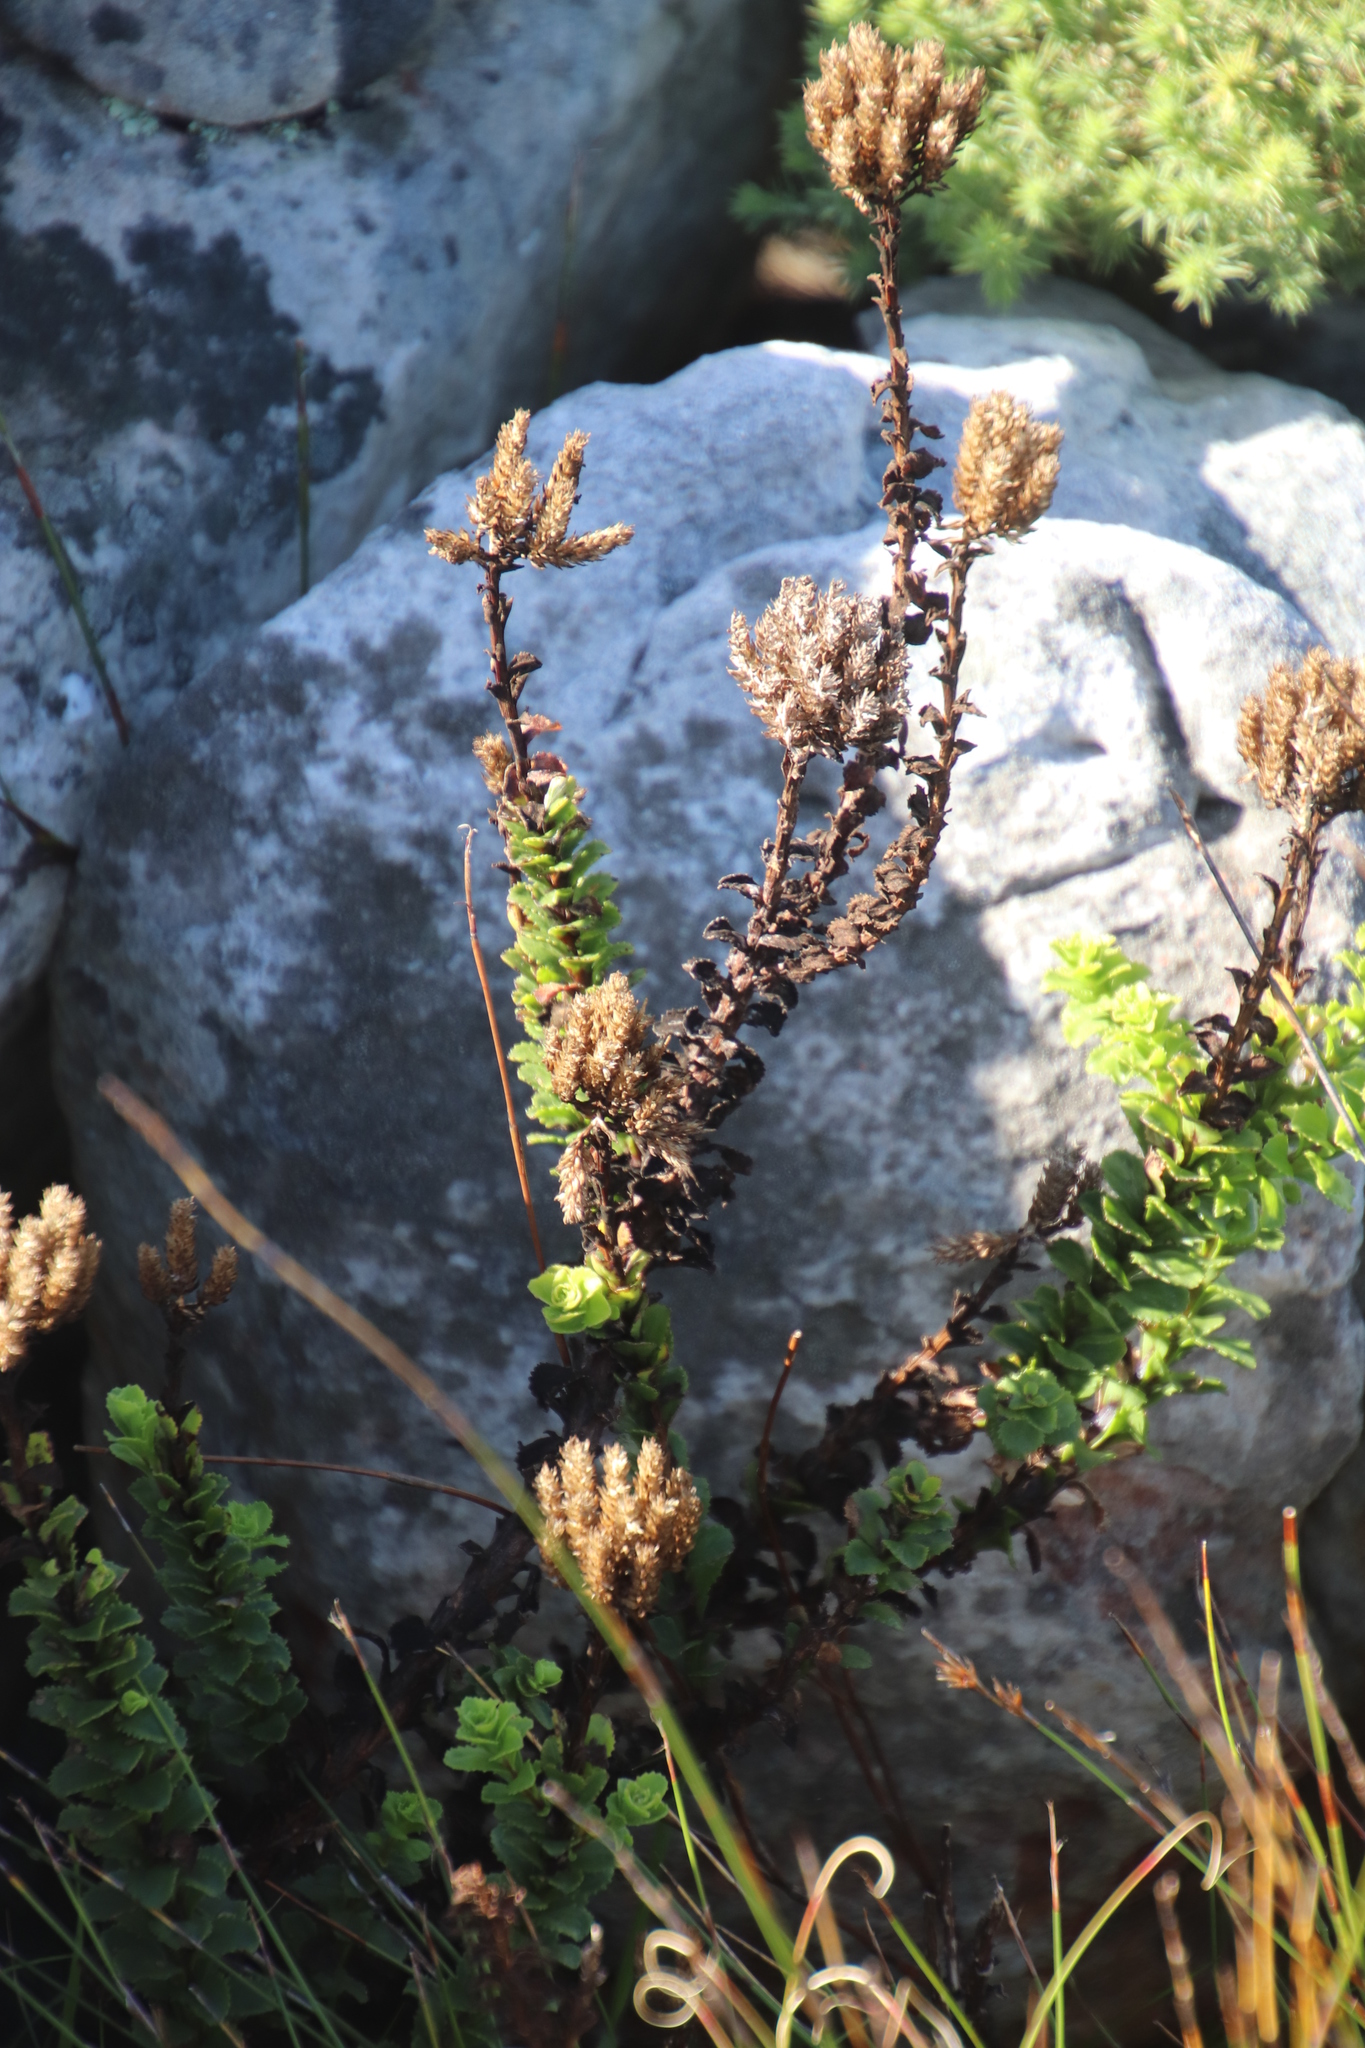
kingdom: Plantae
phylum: Tracheophyta
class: Magnoliopsida
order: Lamiales
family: Scrophulariaceae
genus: Pseudoselago
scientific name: Pseudoselago serrata
